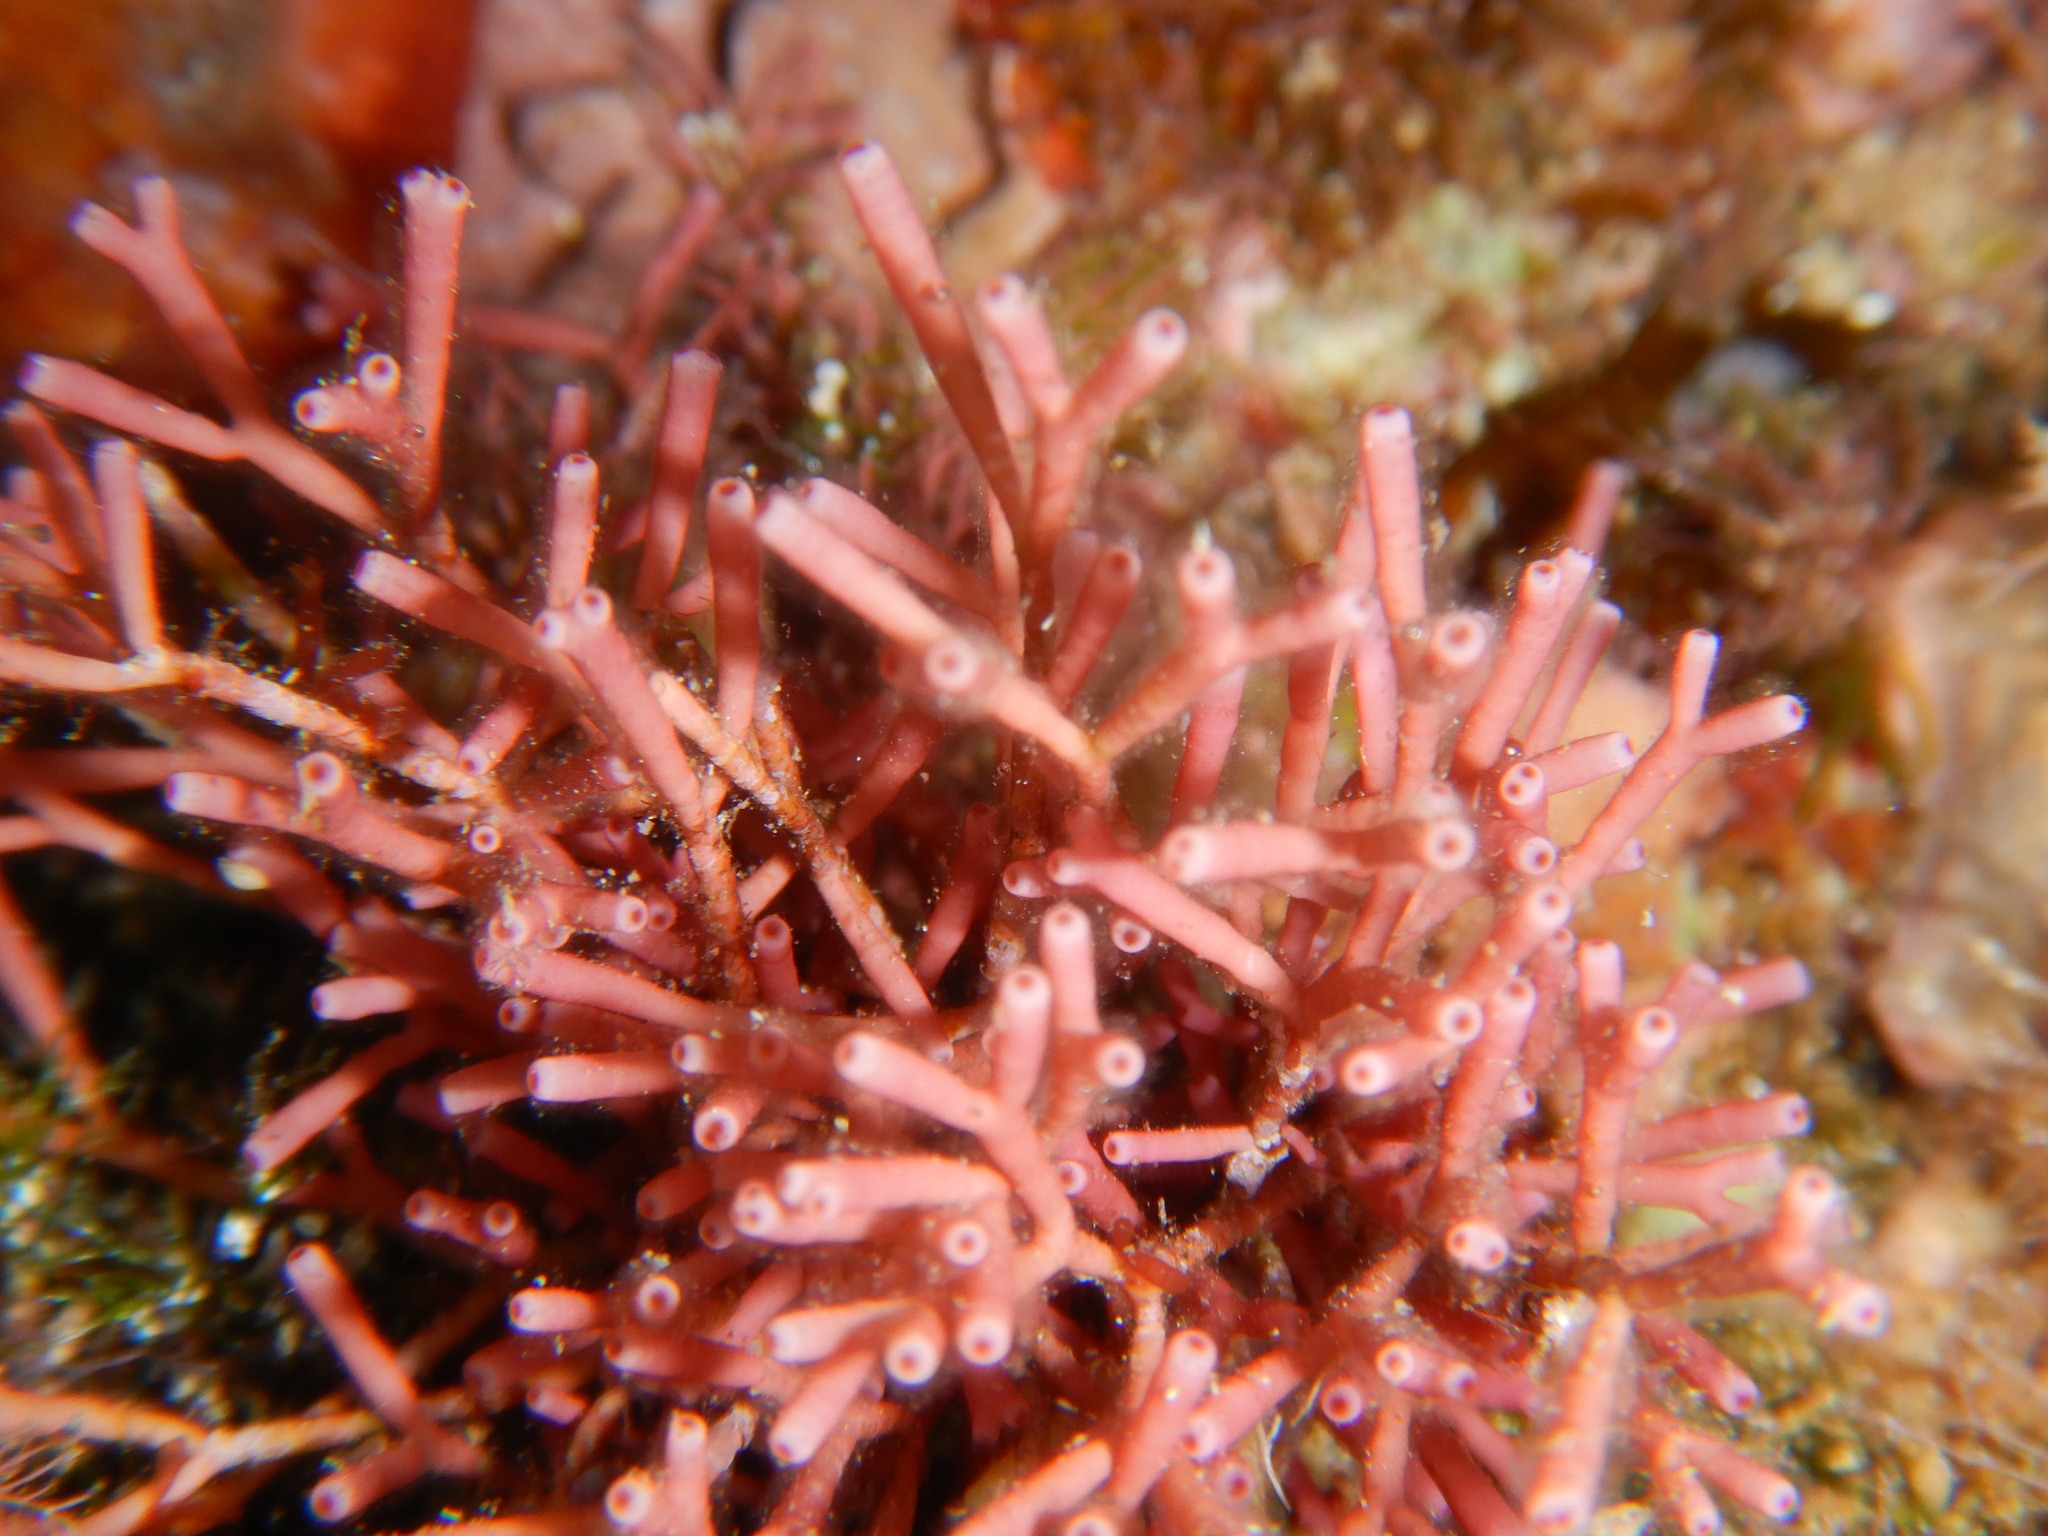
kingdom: Plantae
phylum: Rhodophyta
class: Florideophyceae
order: Nemaliales
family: Galaxauraceae
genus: Tricleocarpa
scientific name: Tricleocarpa fragilis
